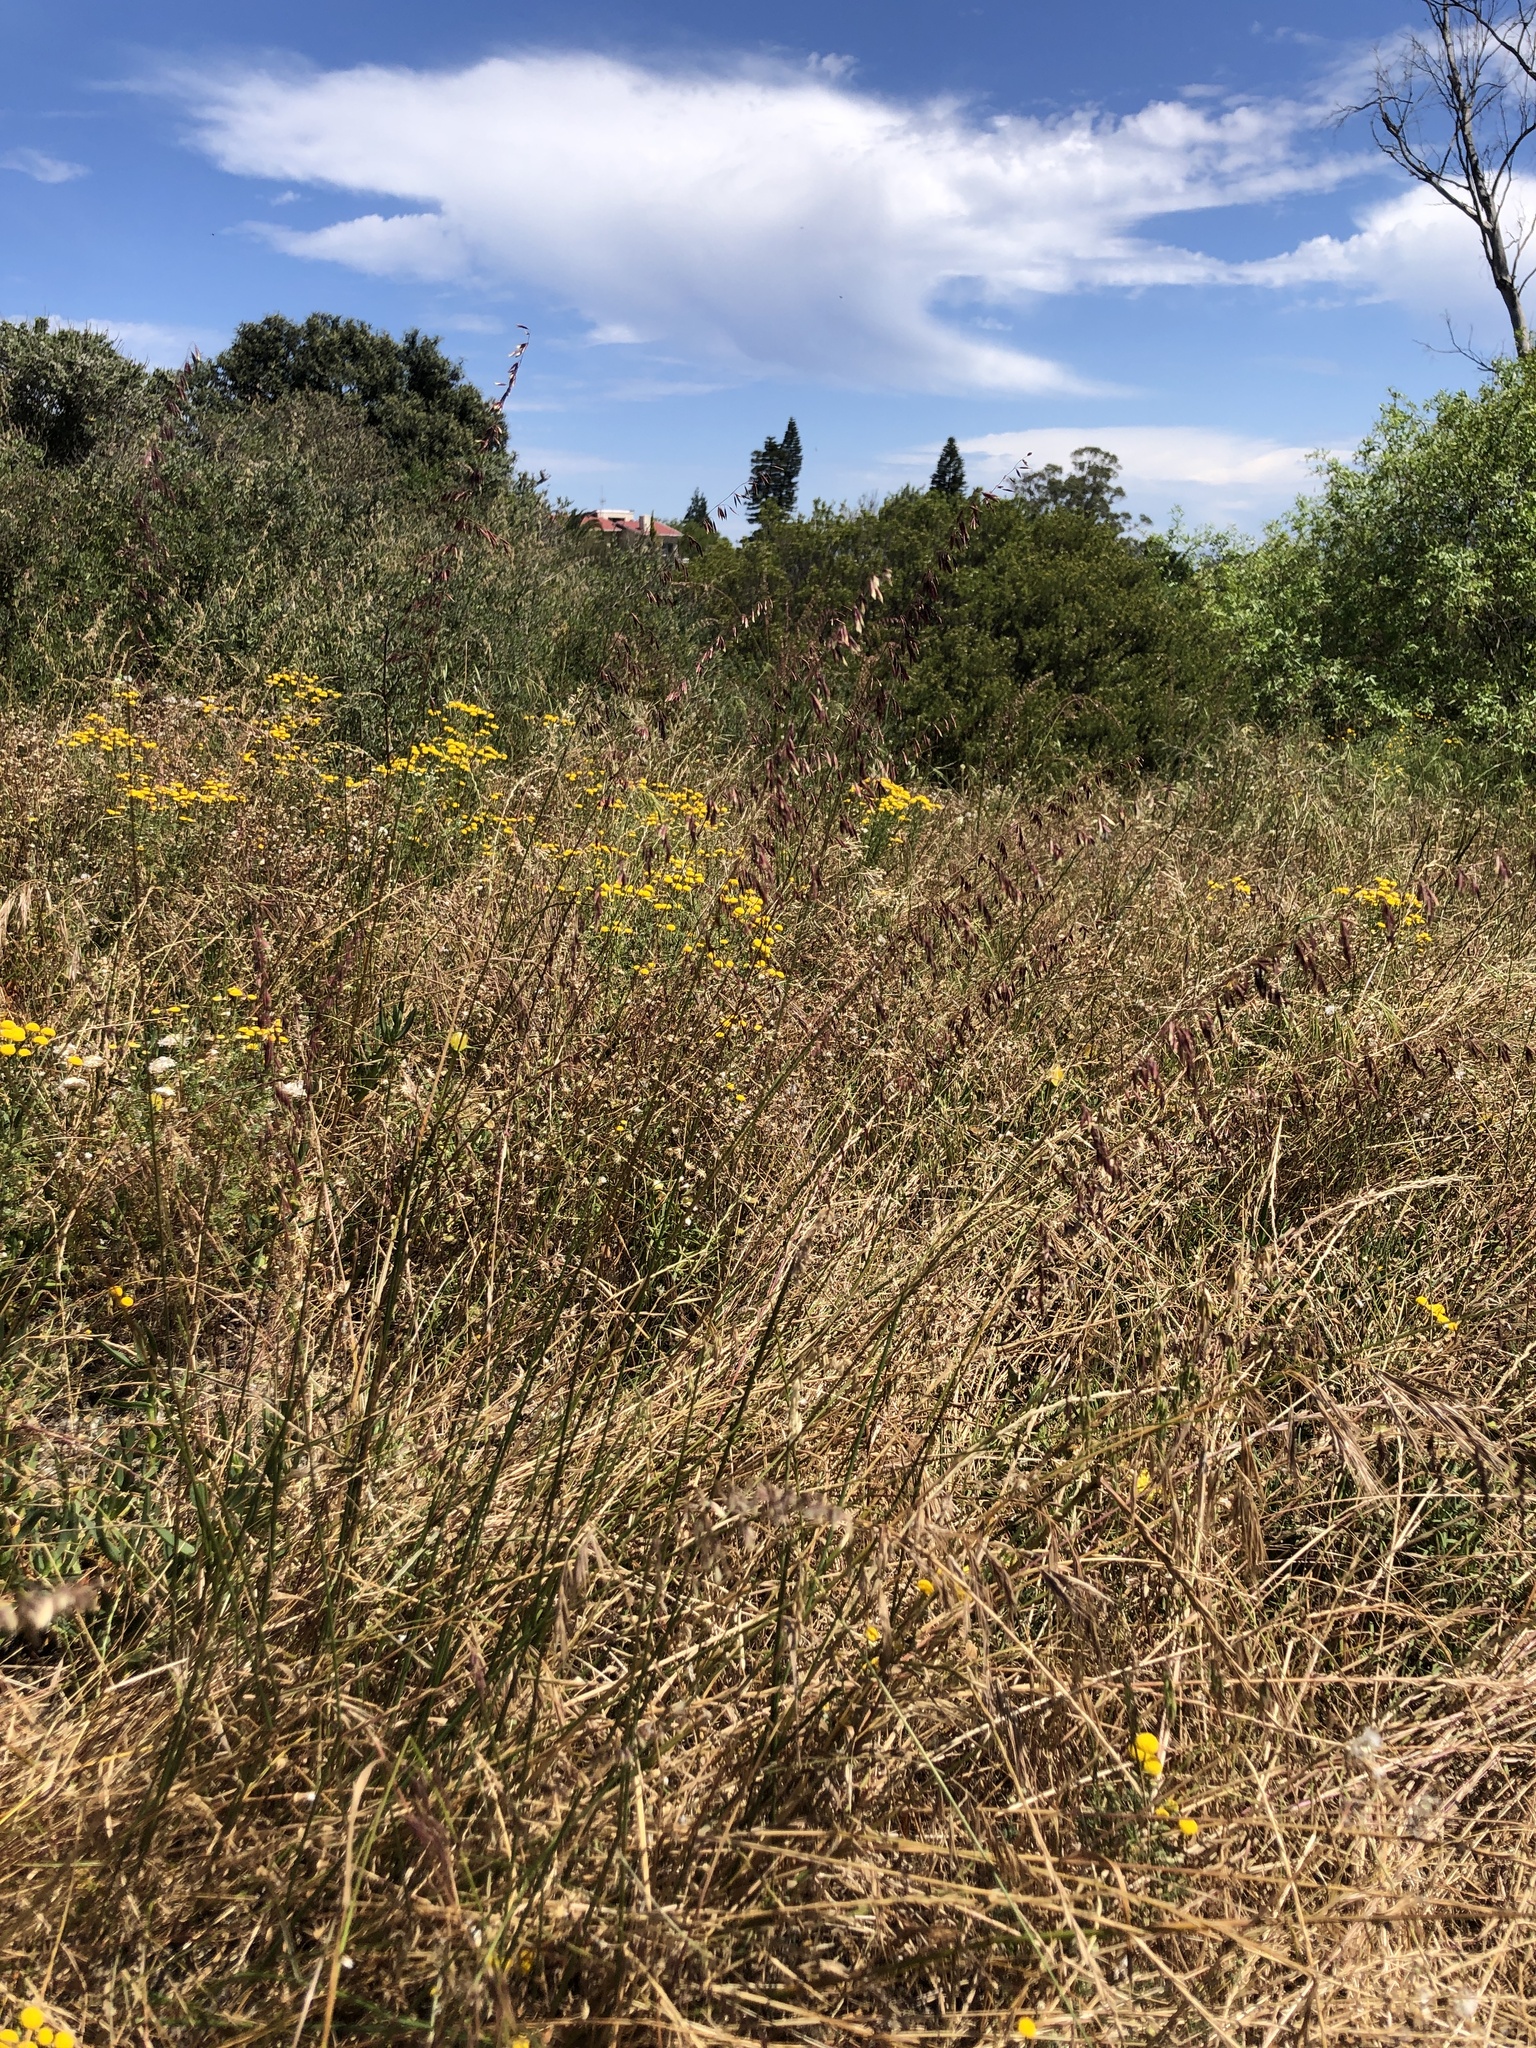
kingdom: Plantae
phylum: Tracheophyta
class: Liliopsida
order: Poales
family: Poaceae
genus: Ehrharta
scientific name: Ehrharta calycina
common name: Perennial veldtgrass
